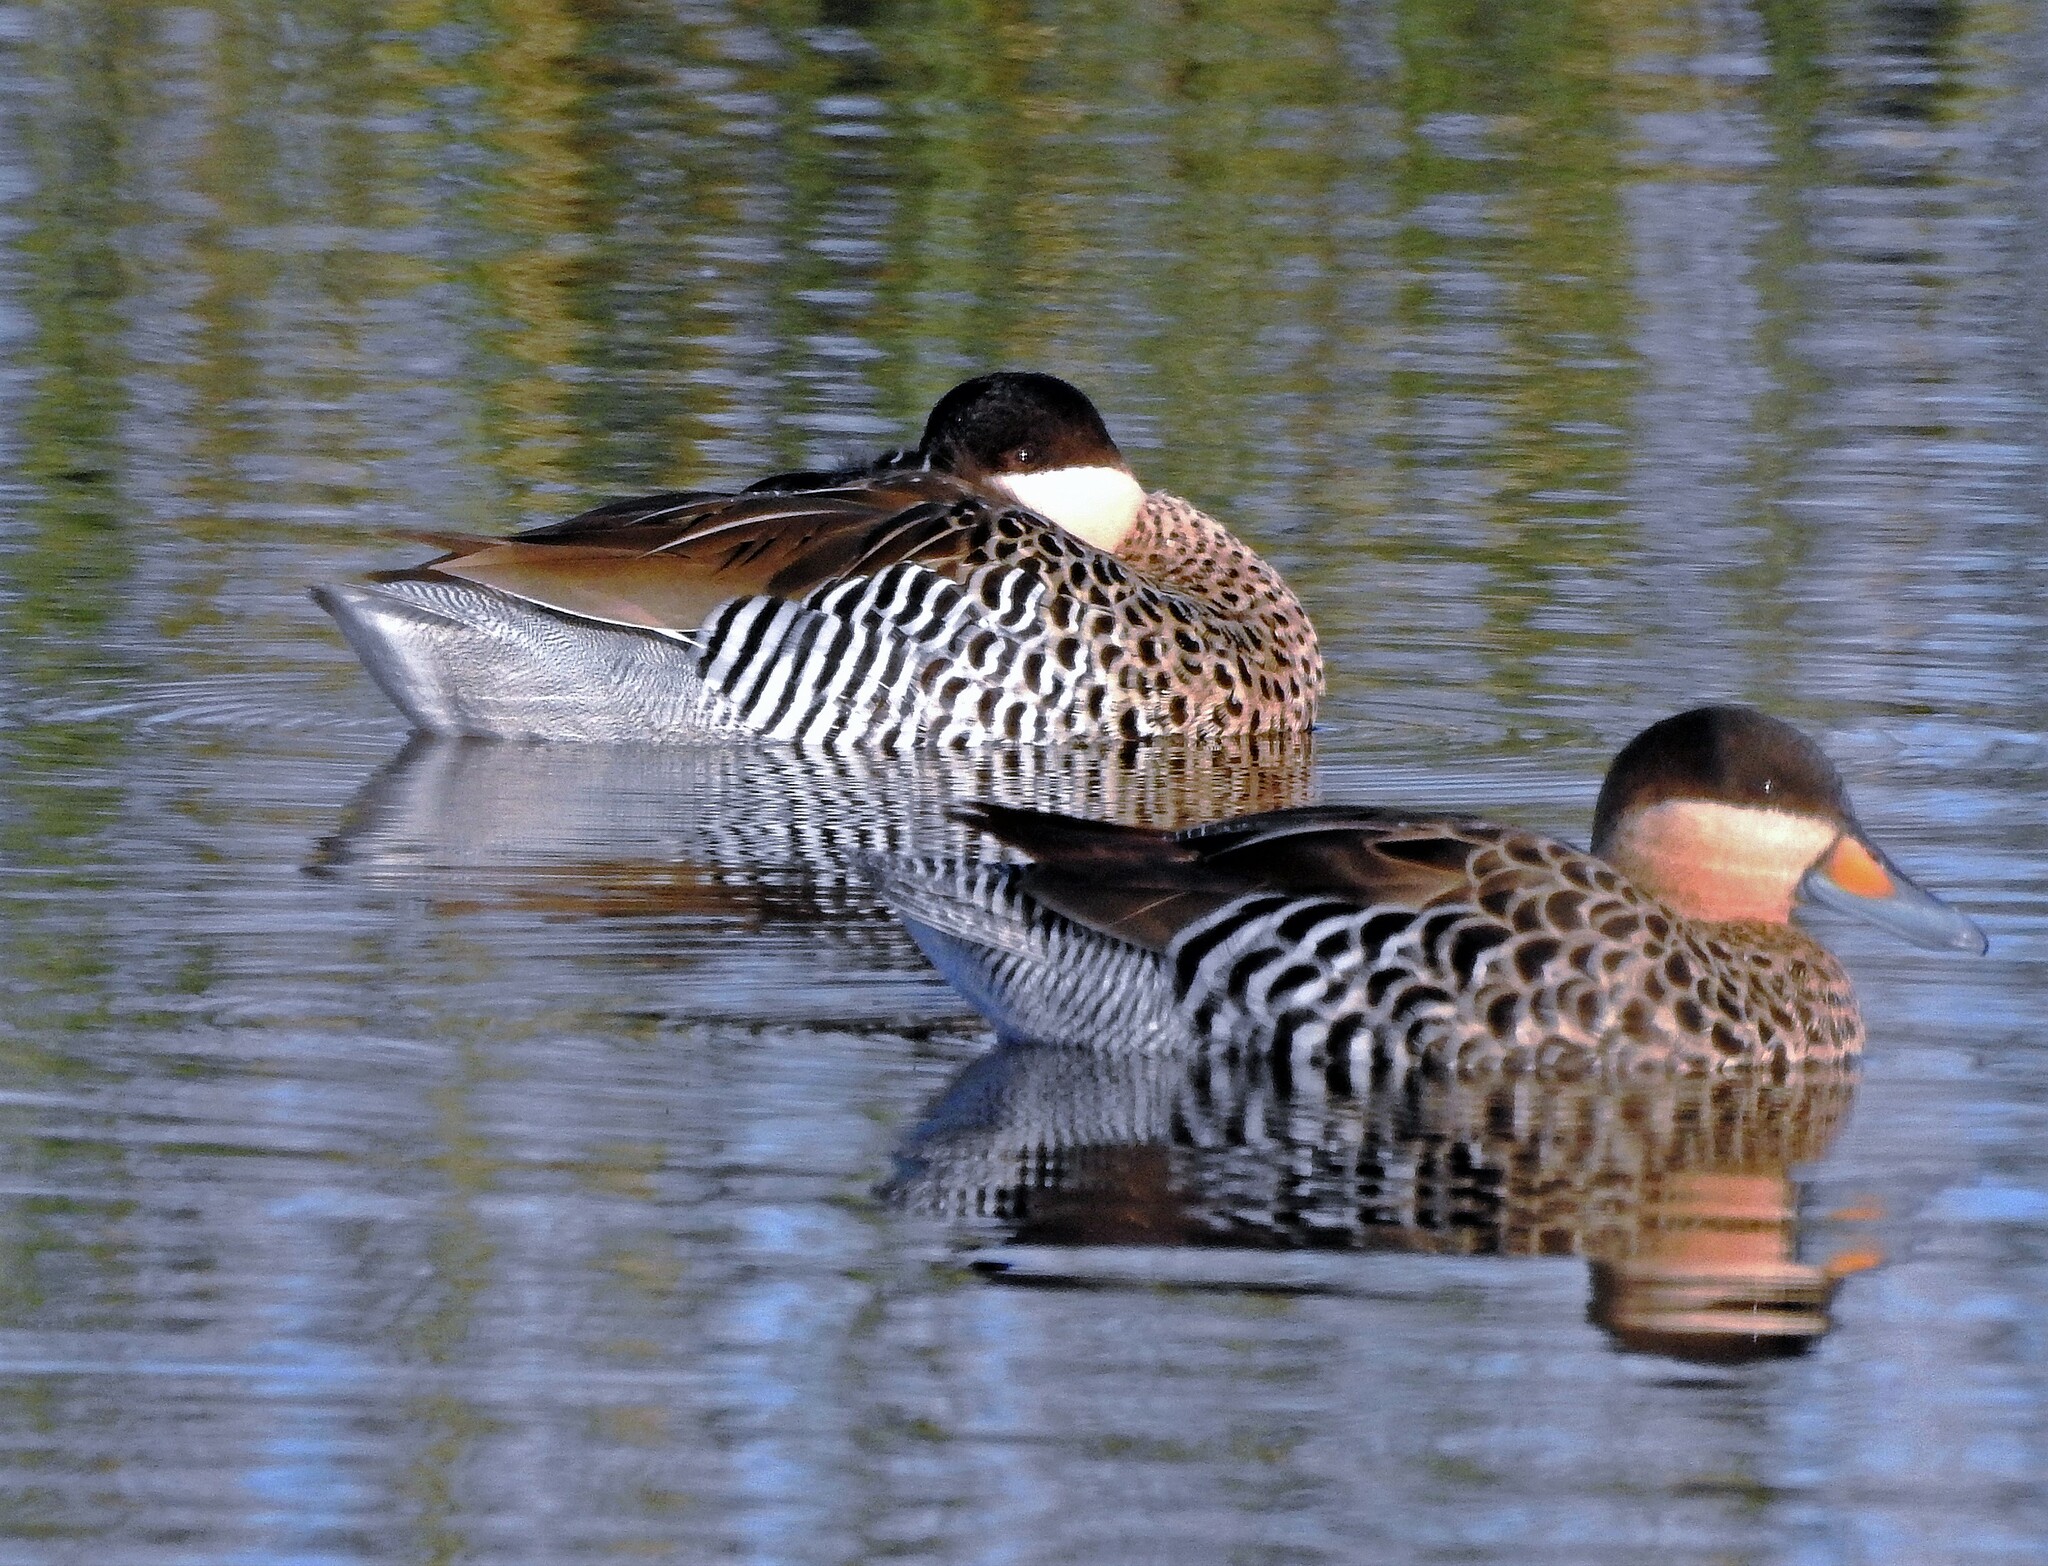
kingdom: Animalia
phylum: Chordata
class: Aves
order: Anseriformes
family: Anatidae
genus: Spatula
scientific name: Spatula versicolor
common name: Silver teal
